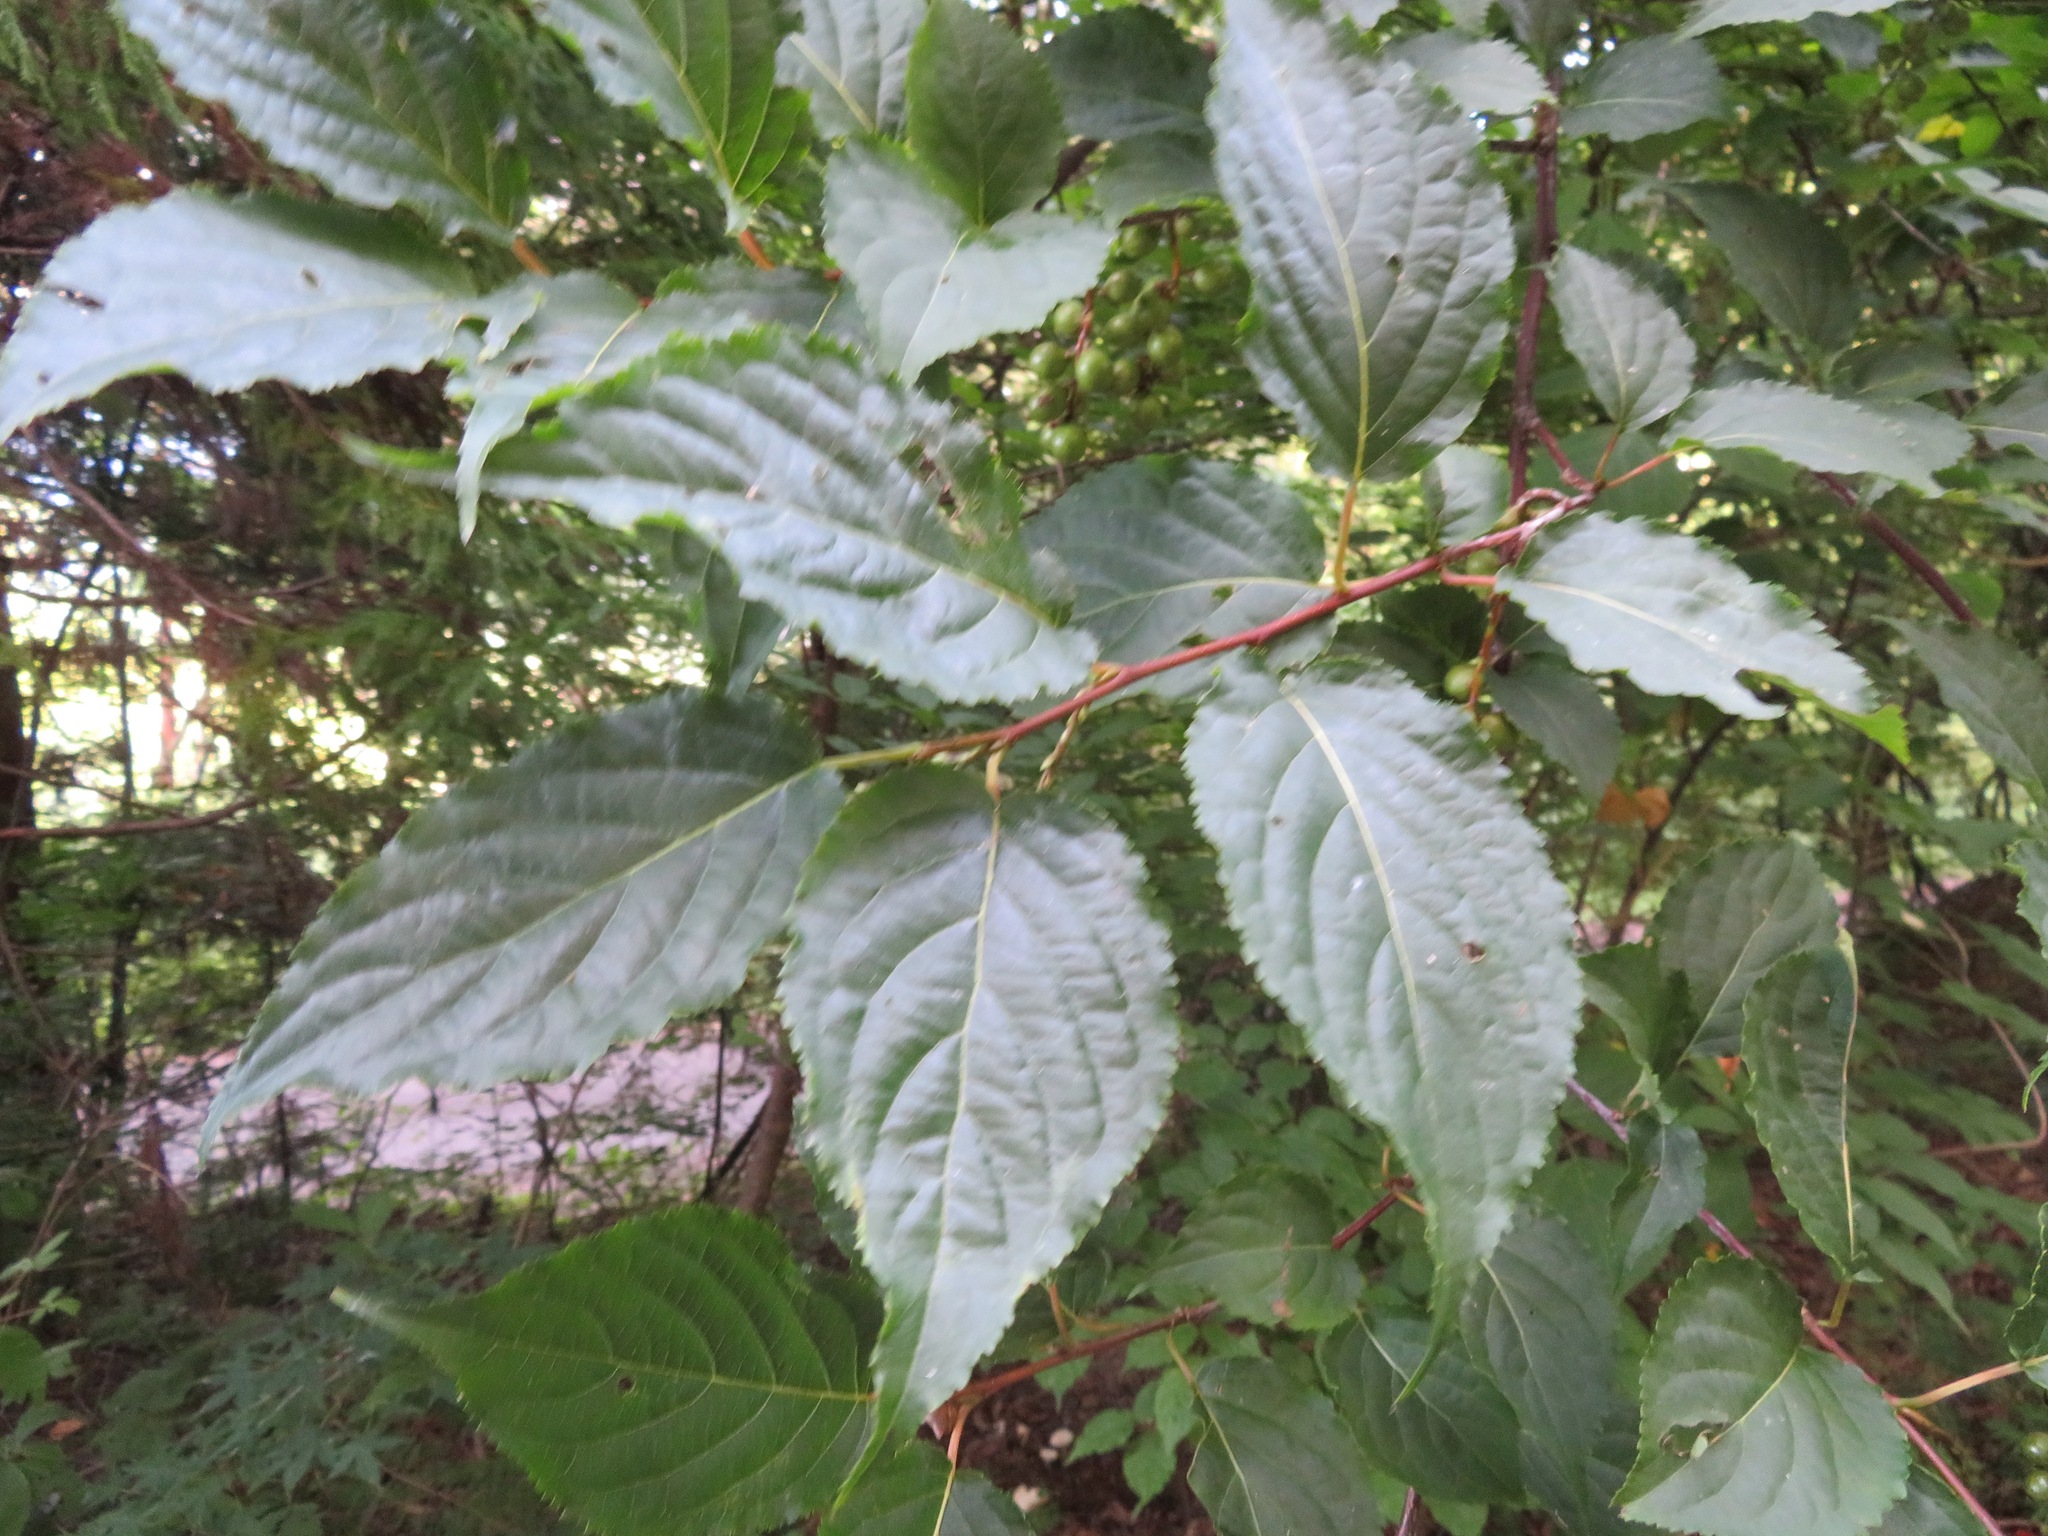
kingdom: Plantae
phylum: Tracheophyta
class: Magnoliopsida
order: Crossosomatales
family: Stachyuraceae
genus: Stachyurus
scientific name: Stachyurus praecox
